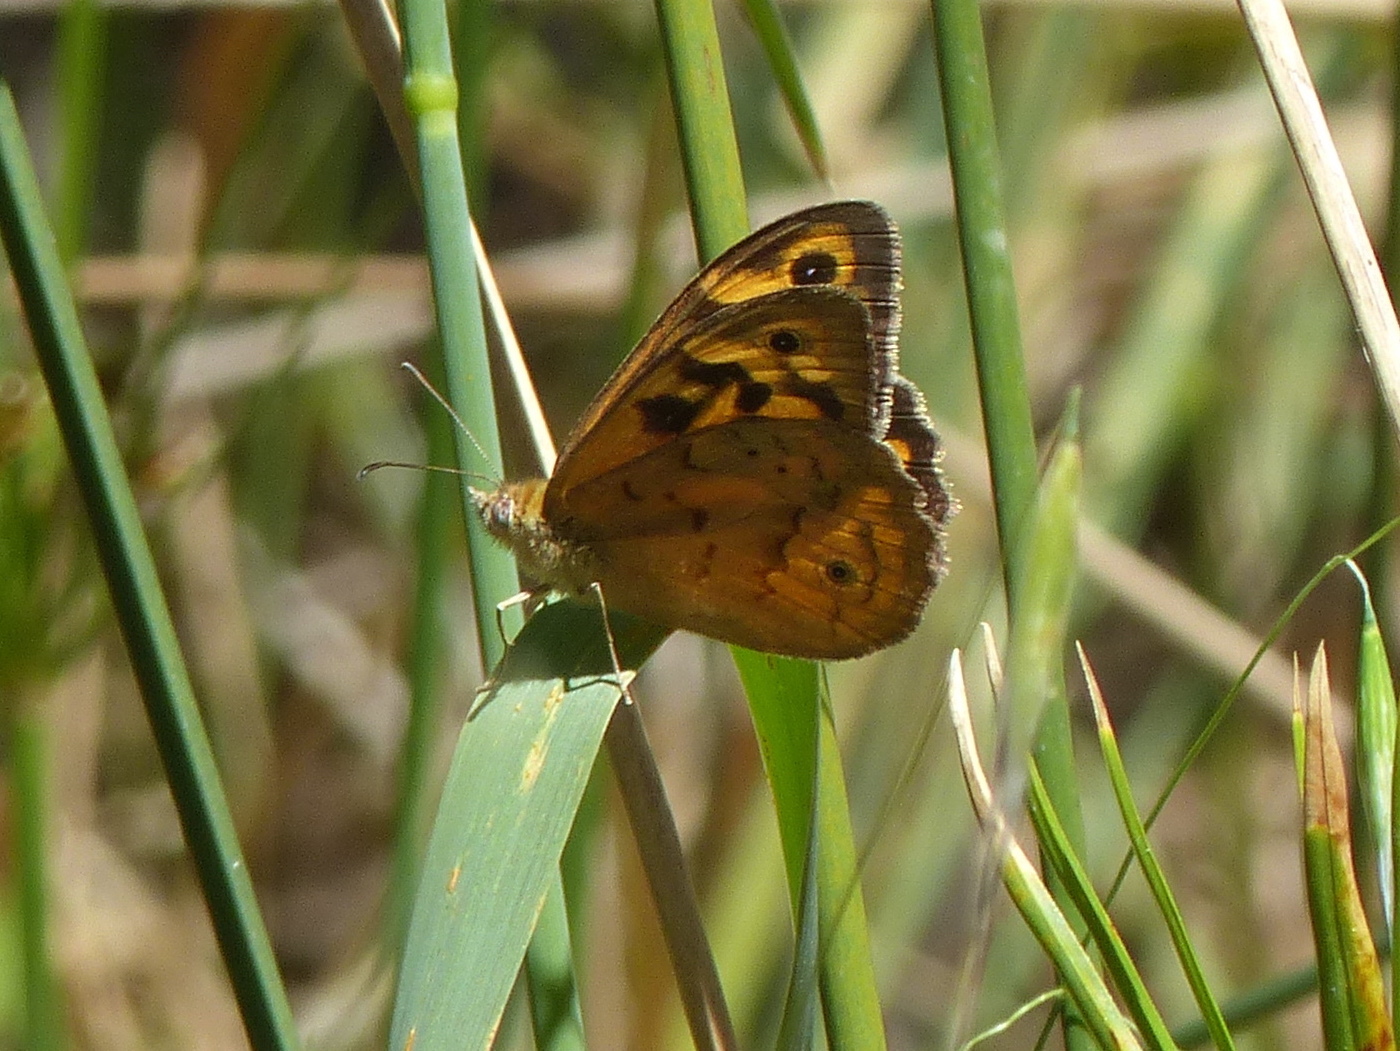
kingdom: Animalia
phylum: Arthropoda
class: Insecta
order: Lepidoptera
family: Nymphalidae
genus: Heteronympha
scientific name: Heteronympha merope
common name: Common brown
